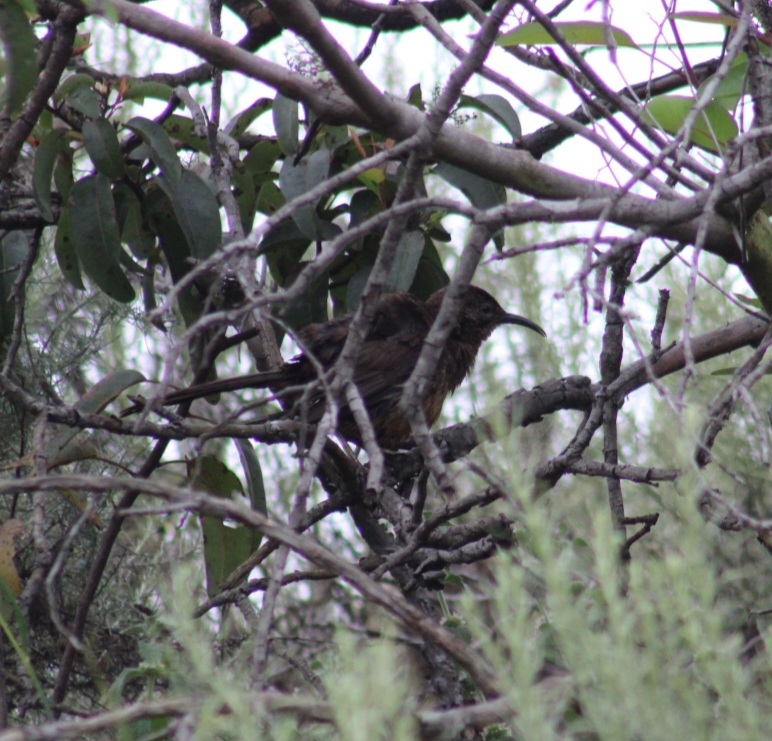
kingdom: Animalia
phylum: Chordata
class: Aves
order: Passeriformes
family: Mimidae
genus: Toxostoma
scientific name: Toxostoma redivivum
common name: California thrasher
